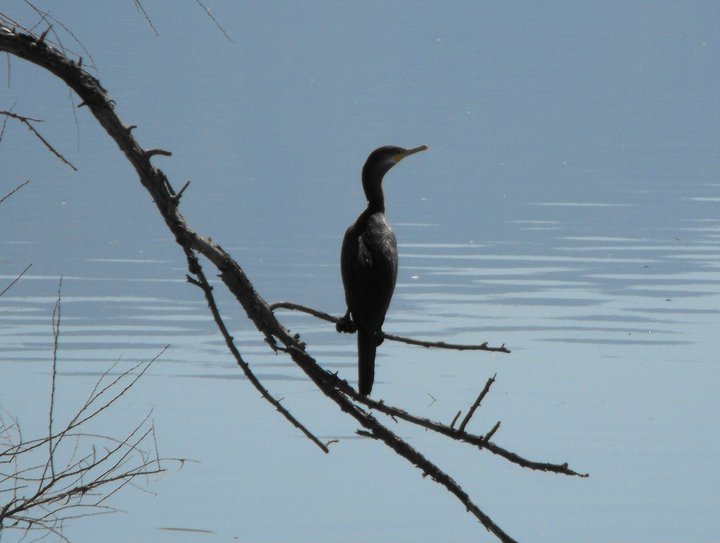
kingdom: Animalia
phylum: Chordata
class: Aves
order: Suliformes
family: Phalacrocoracidae
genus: Phalacrocorax
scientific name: Phalacrocorax brasilianus
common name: Neotropic cormorant
